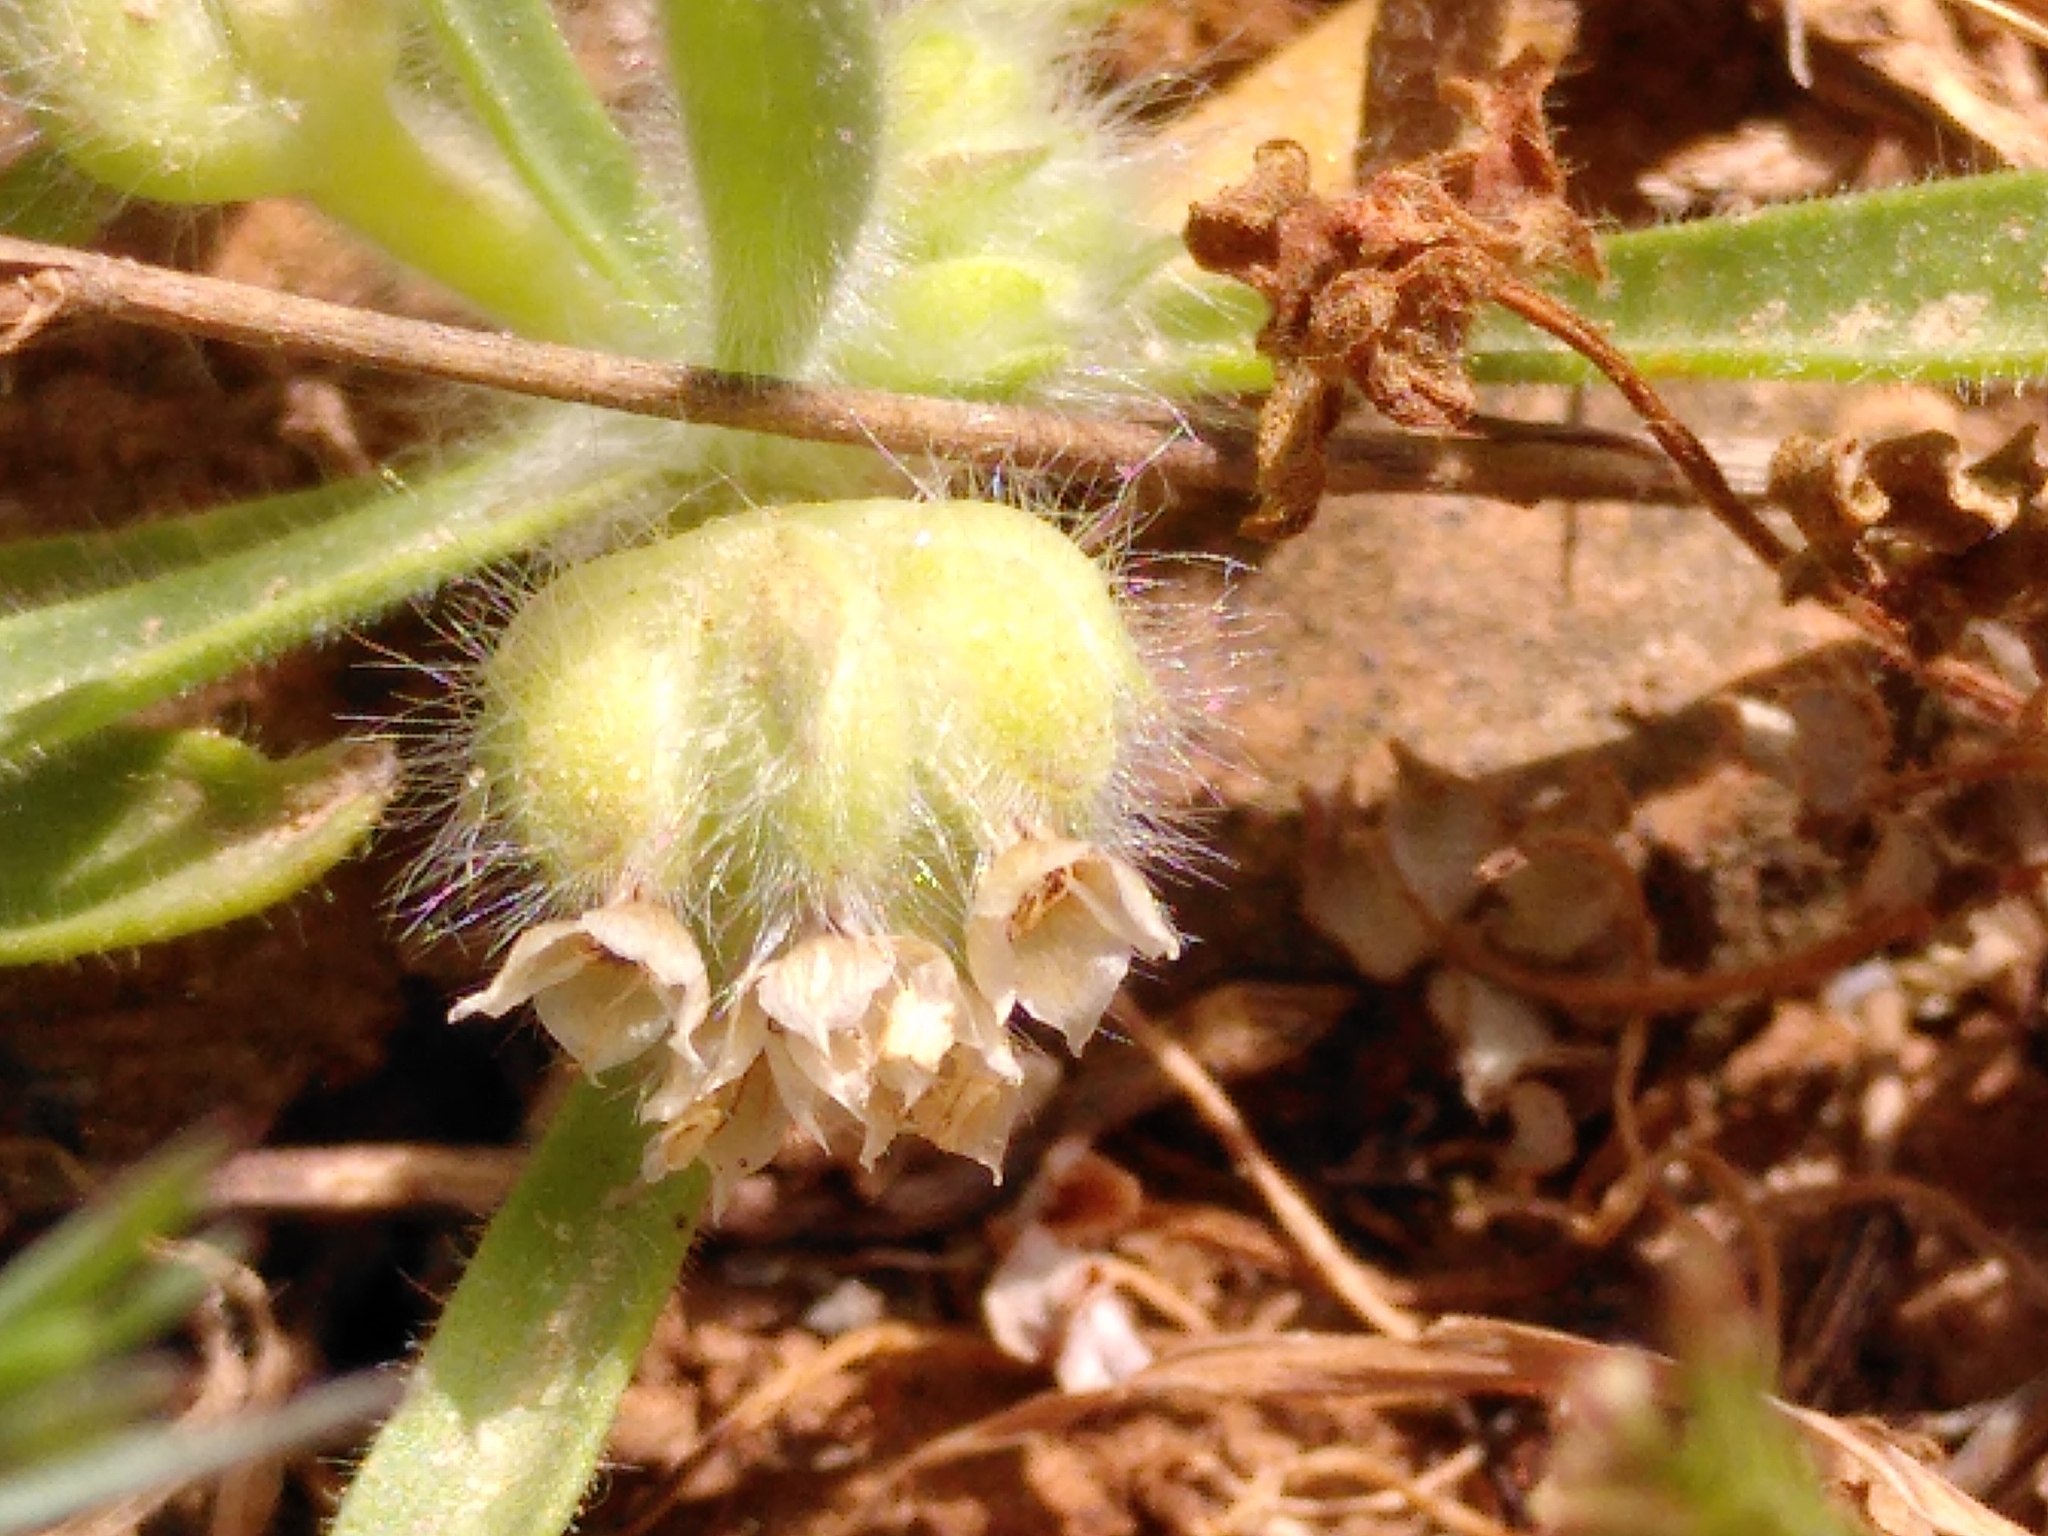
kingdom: Plantae
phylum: Tracheophyta
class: Magnoliopsida
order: Lamiales
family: Plantaginaceae
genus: Plantago
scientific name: Plantago cretica
